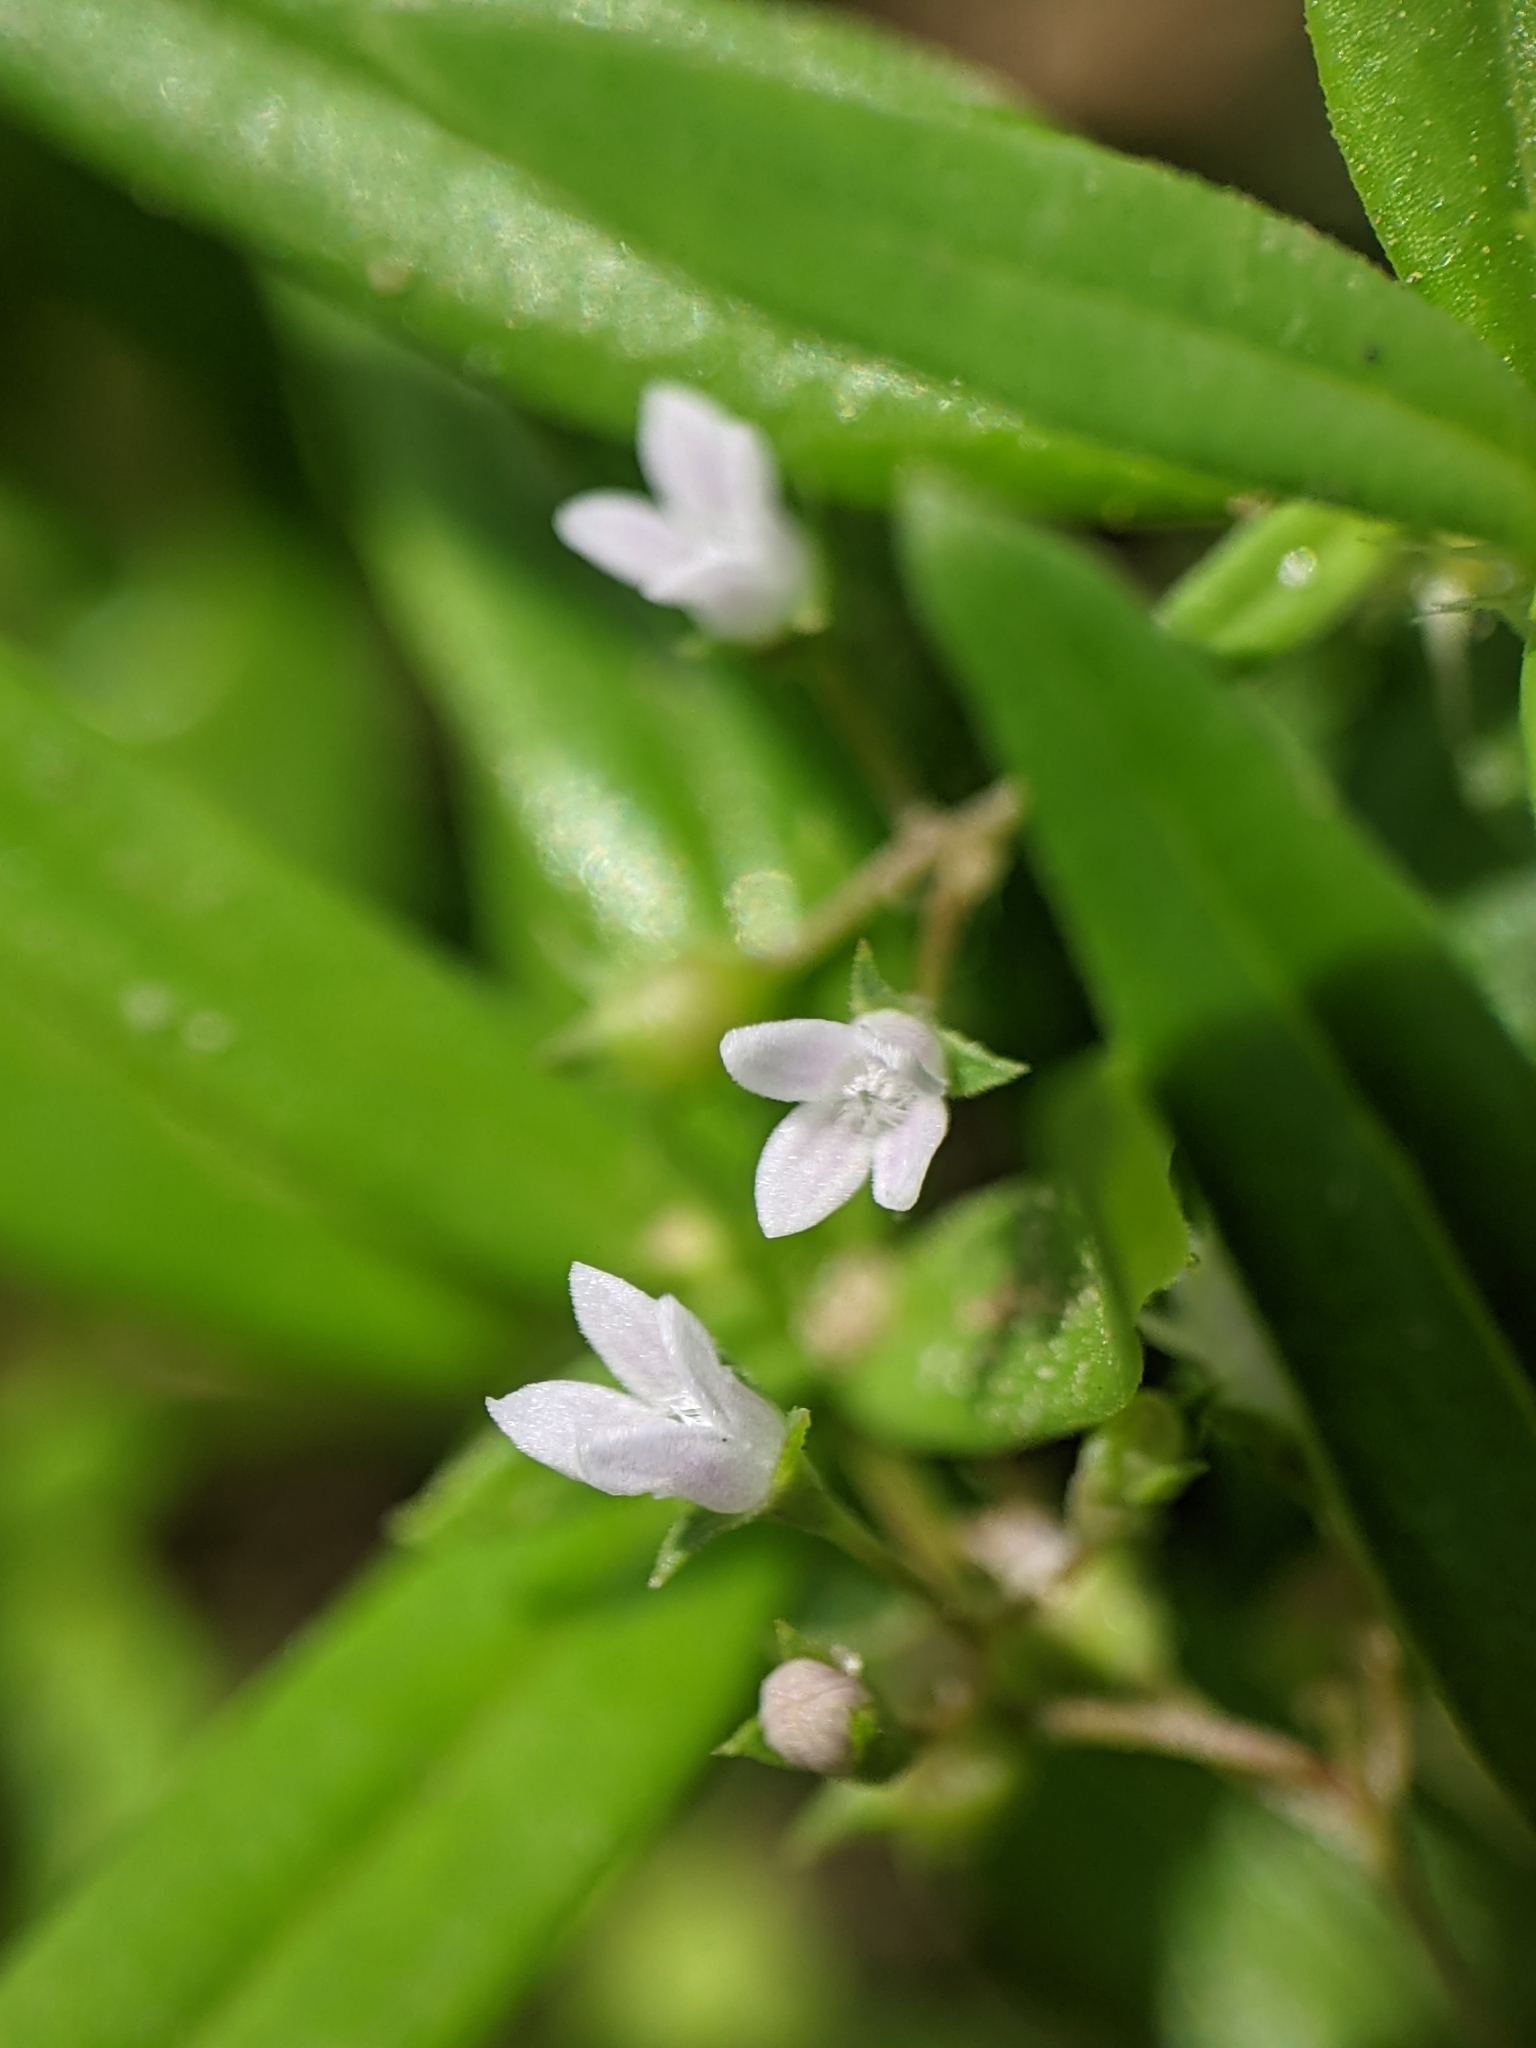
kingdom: Plantae
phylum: Tracheophyta
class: Magnoliopsida
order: Gentianales
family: Rubiaceae
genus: Oldenlandia
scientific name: Oldenlandia corymbosa
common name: Flat-top mille graines
